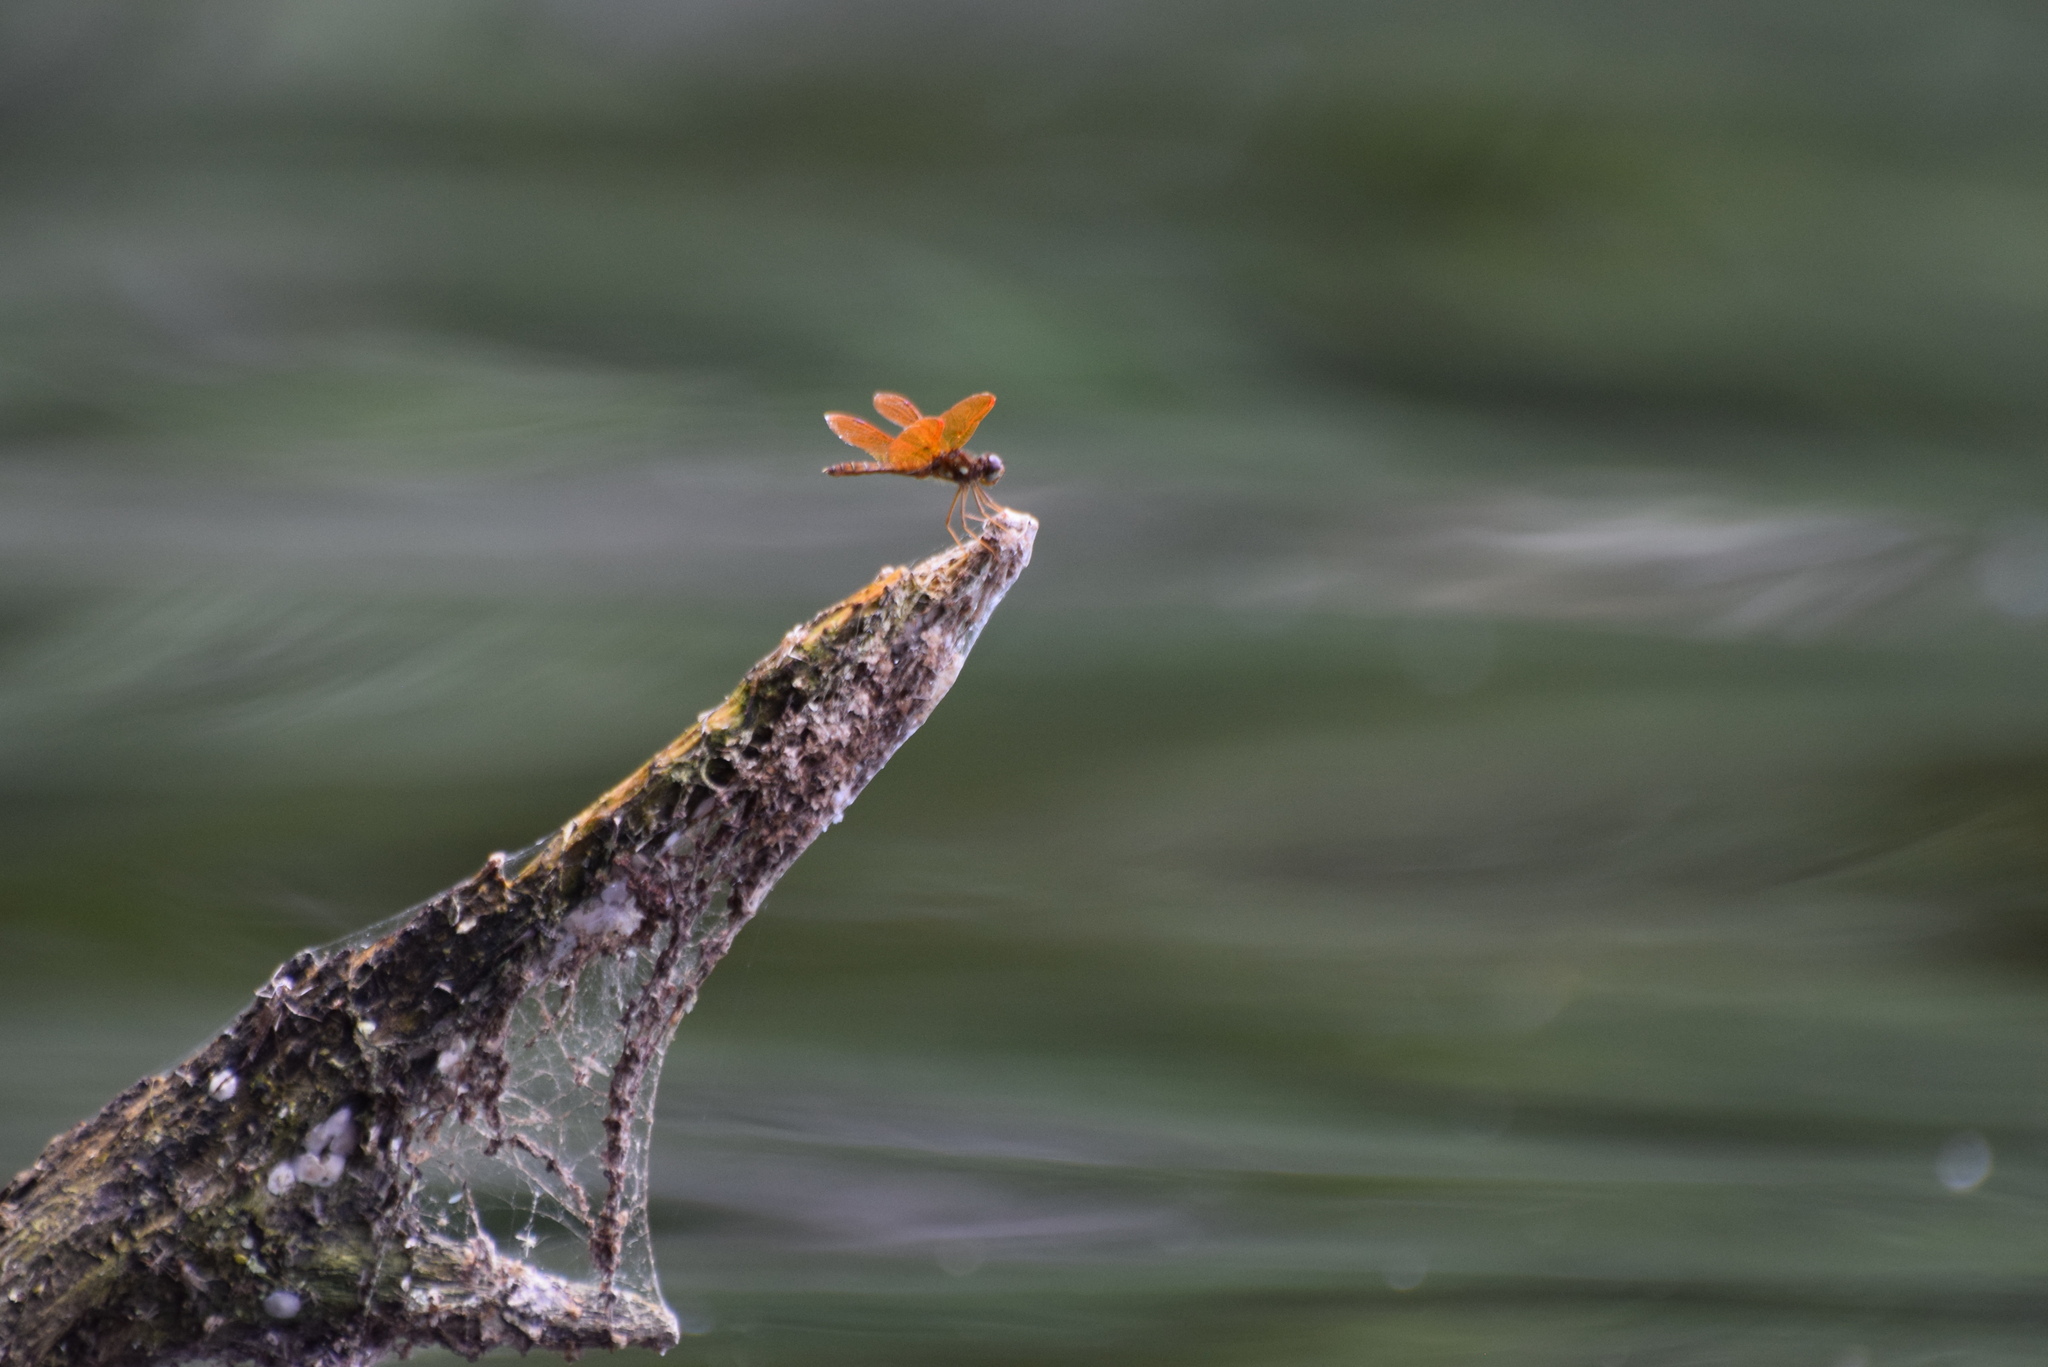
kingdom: Animalia
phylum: Arthropoda
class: Insecta
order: Odonata
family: Libellulidae
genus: Perithemis
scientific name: Perithemis tenera
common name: Eastern amberwing
